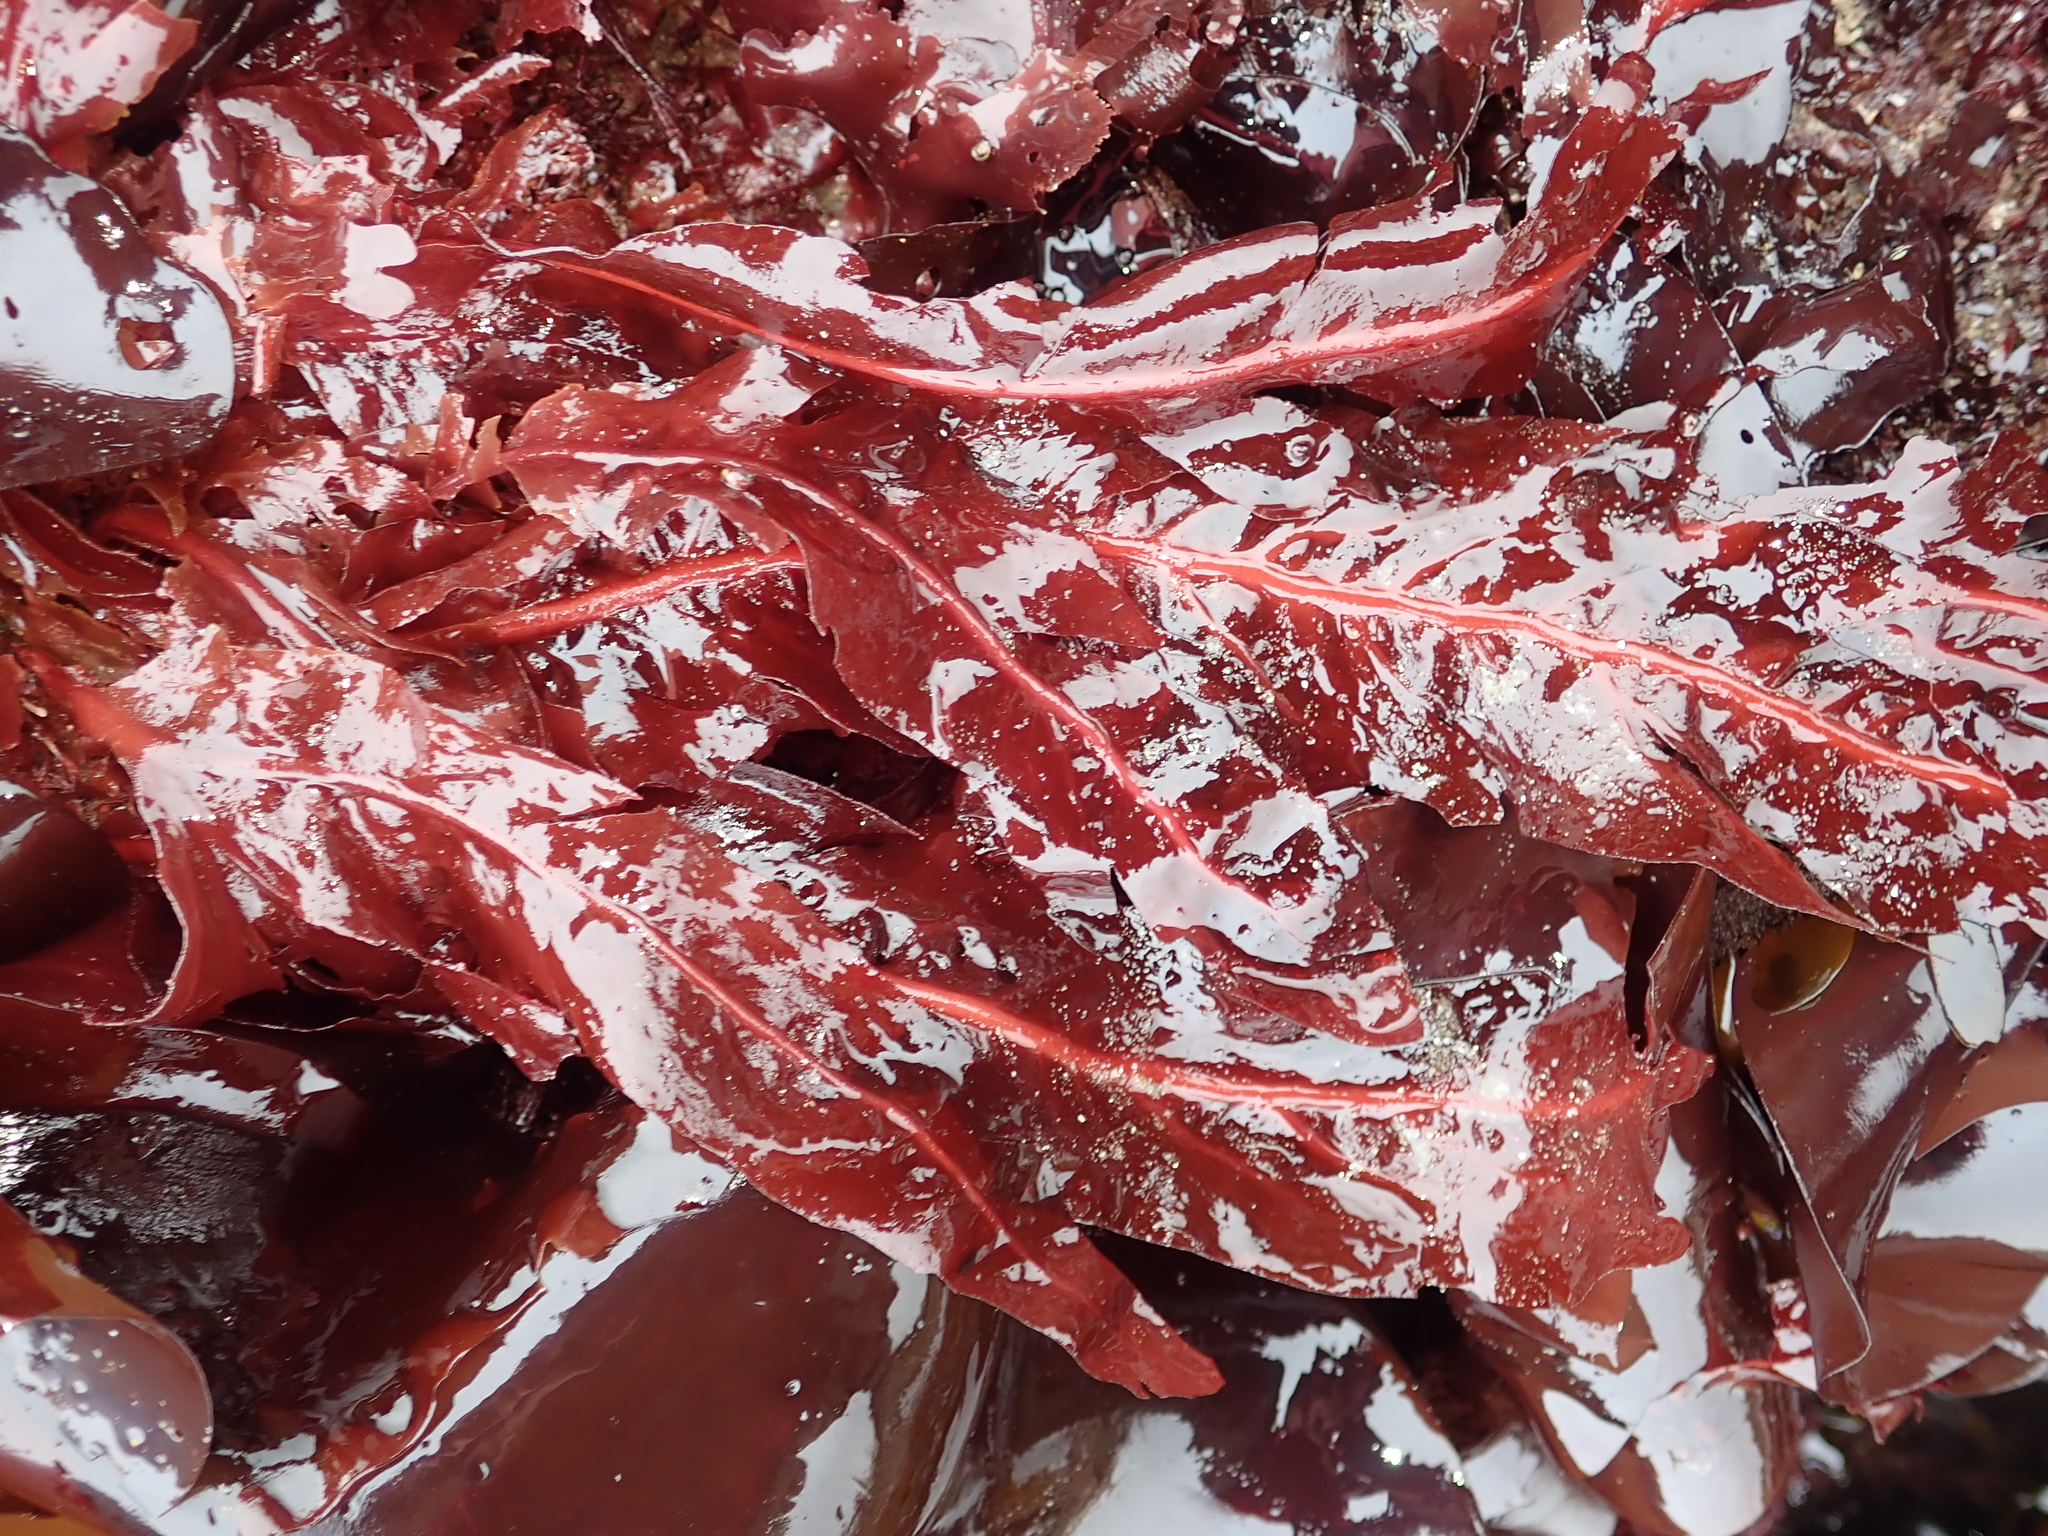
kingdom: Plantae
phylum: Rhodophyta
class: Florideophyceae
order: Gigartinales
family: Kallymeniaceae
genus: Erythrophyllum
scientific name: Erythrophyllum delesserioides
